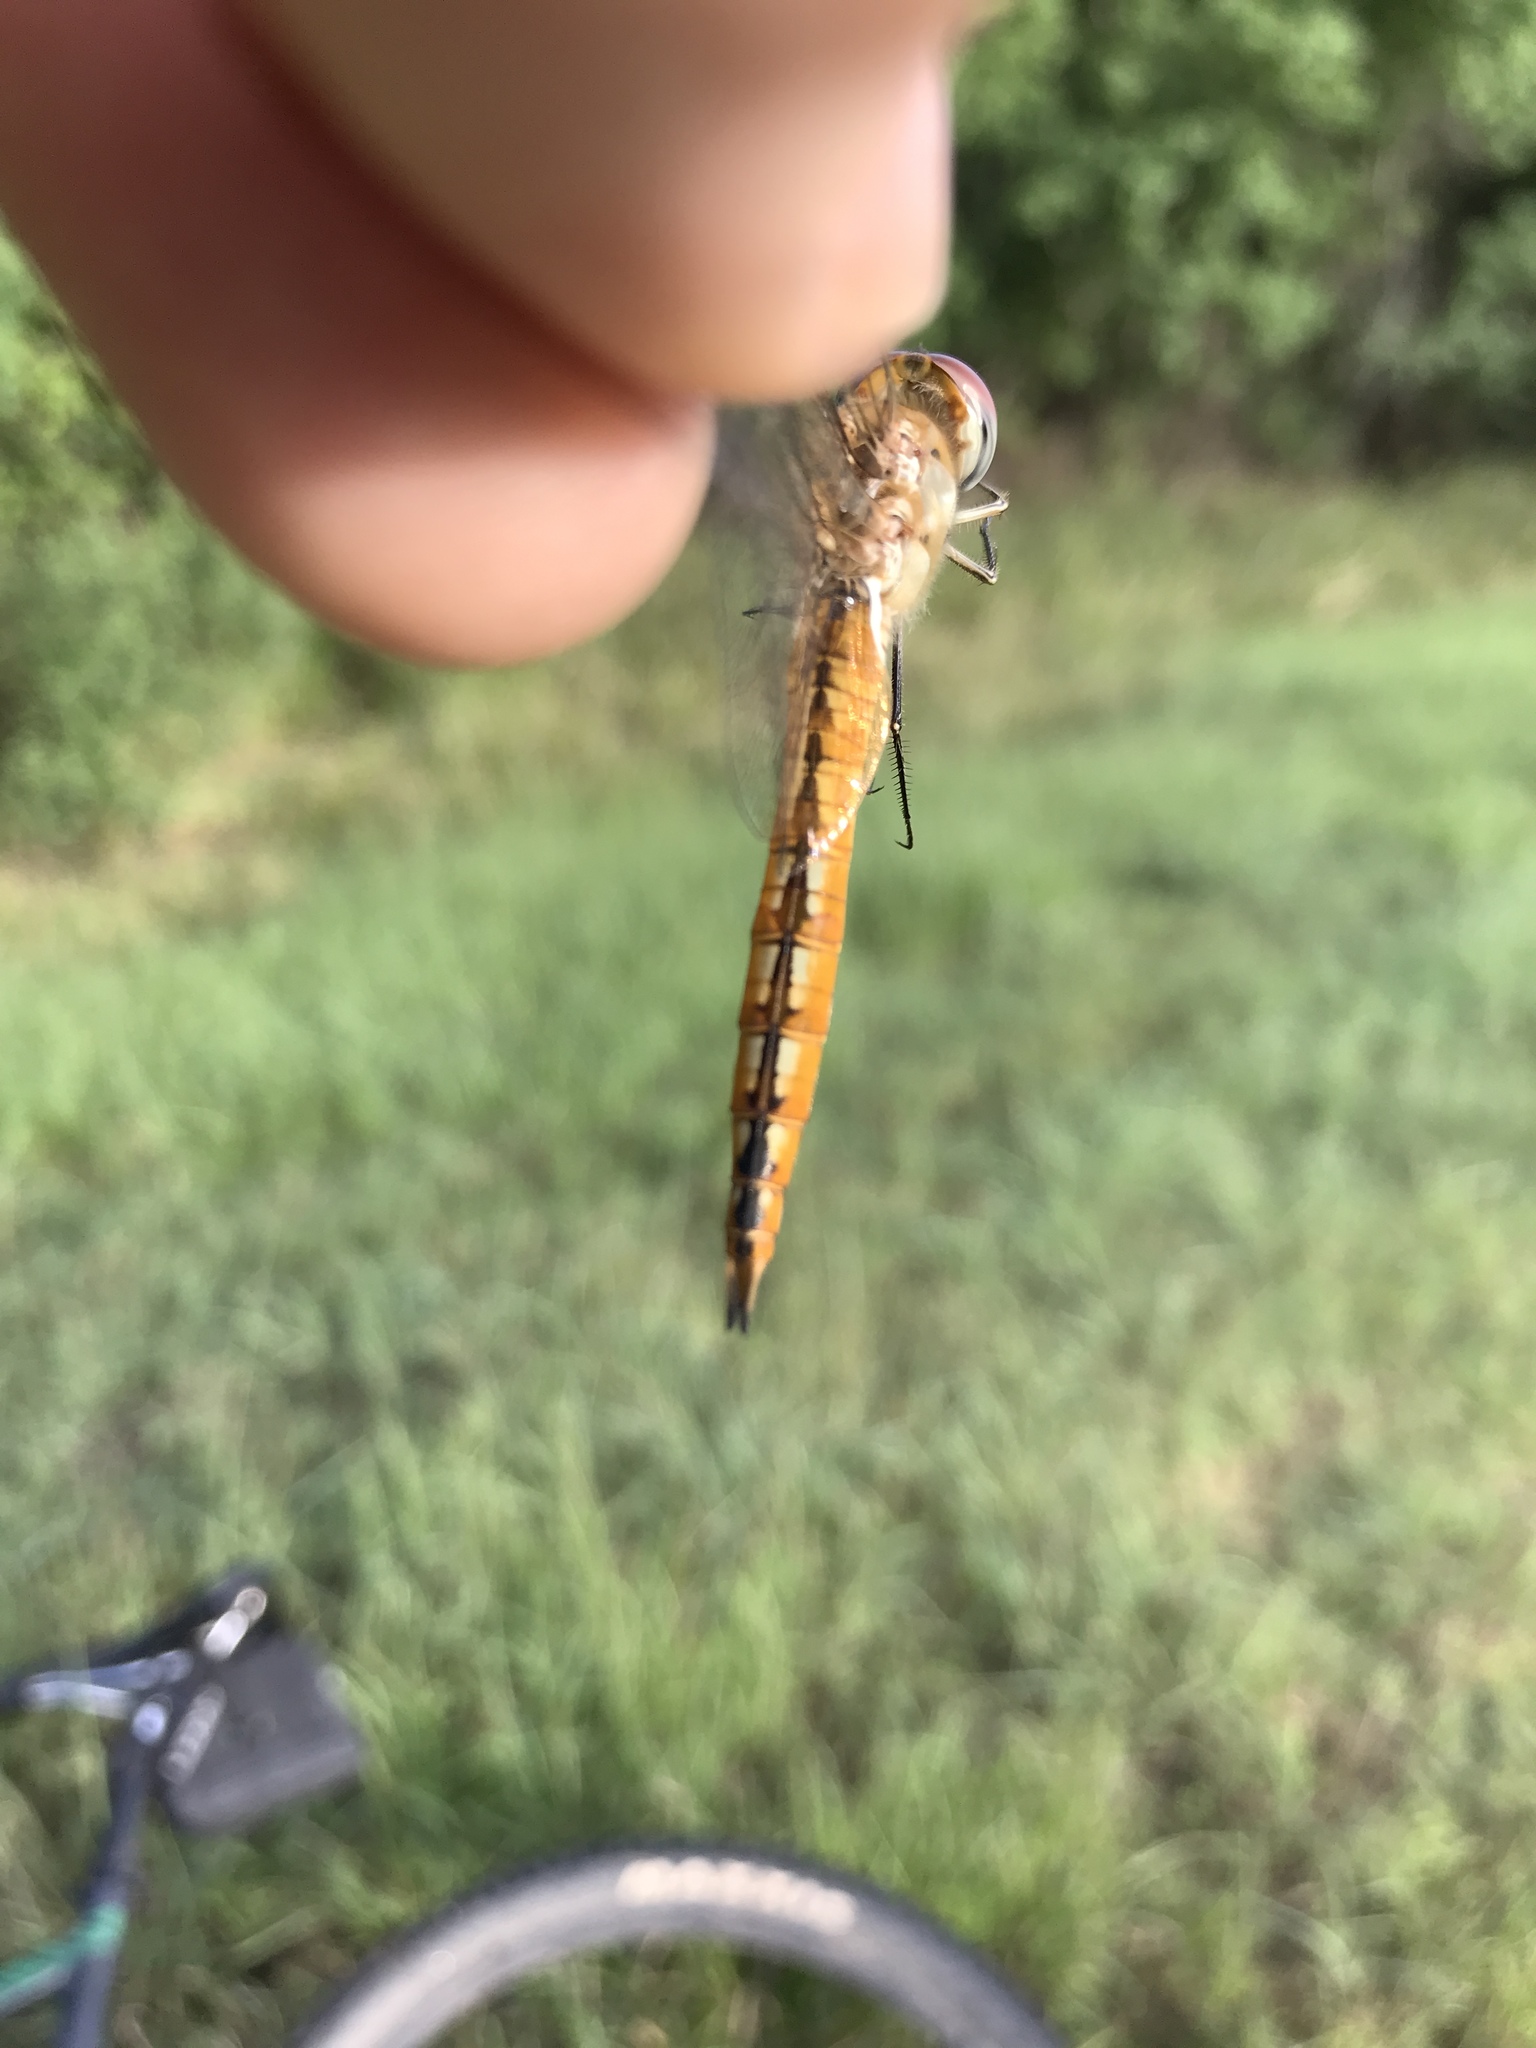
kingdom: Animalia
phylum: Arthropoda
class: Insecta
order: Odonata
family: Libellulidae
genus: Pantala
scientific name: Pantala flavescens
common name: Wandering glider
